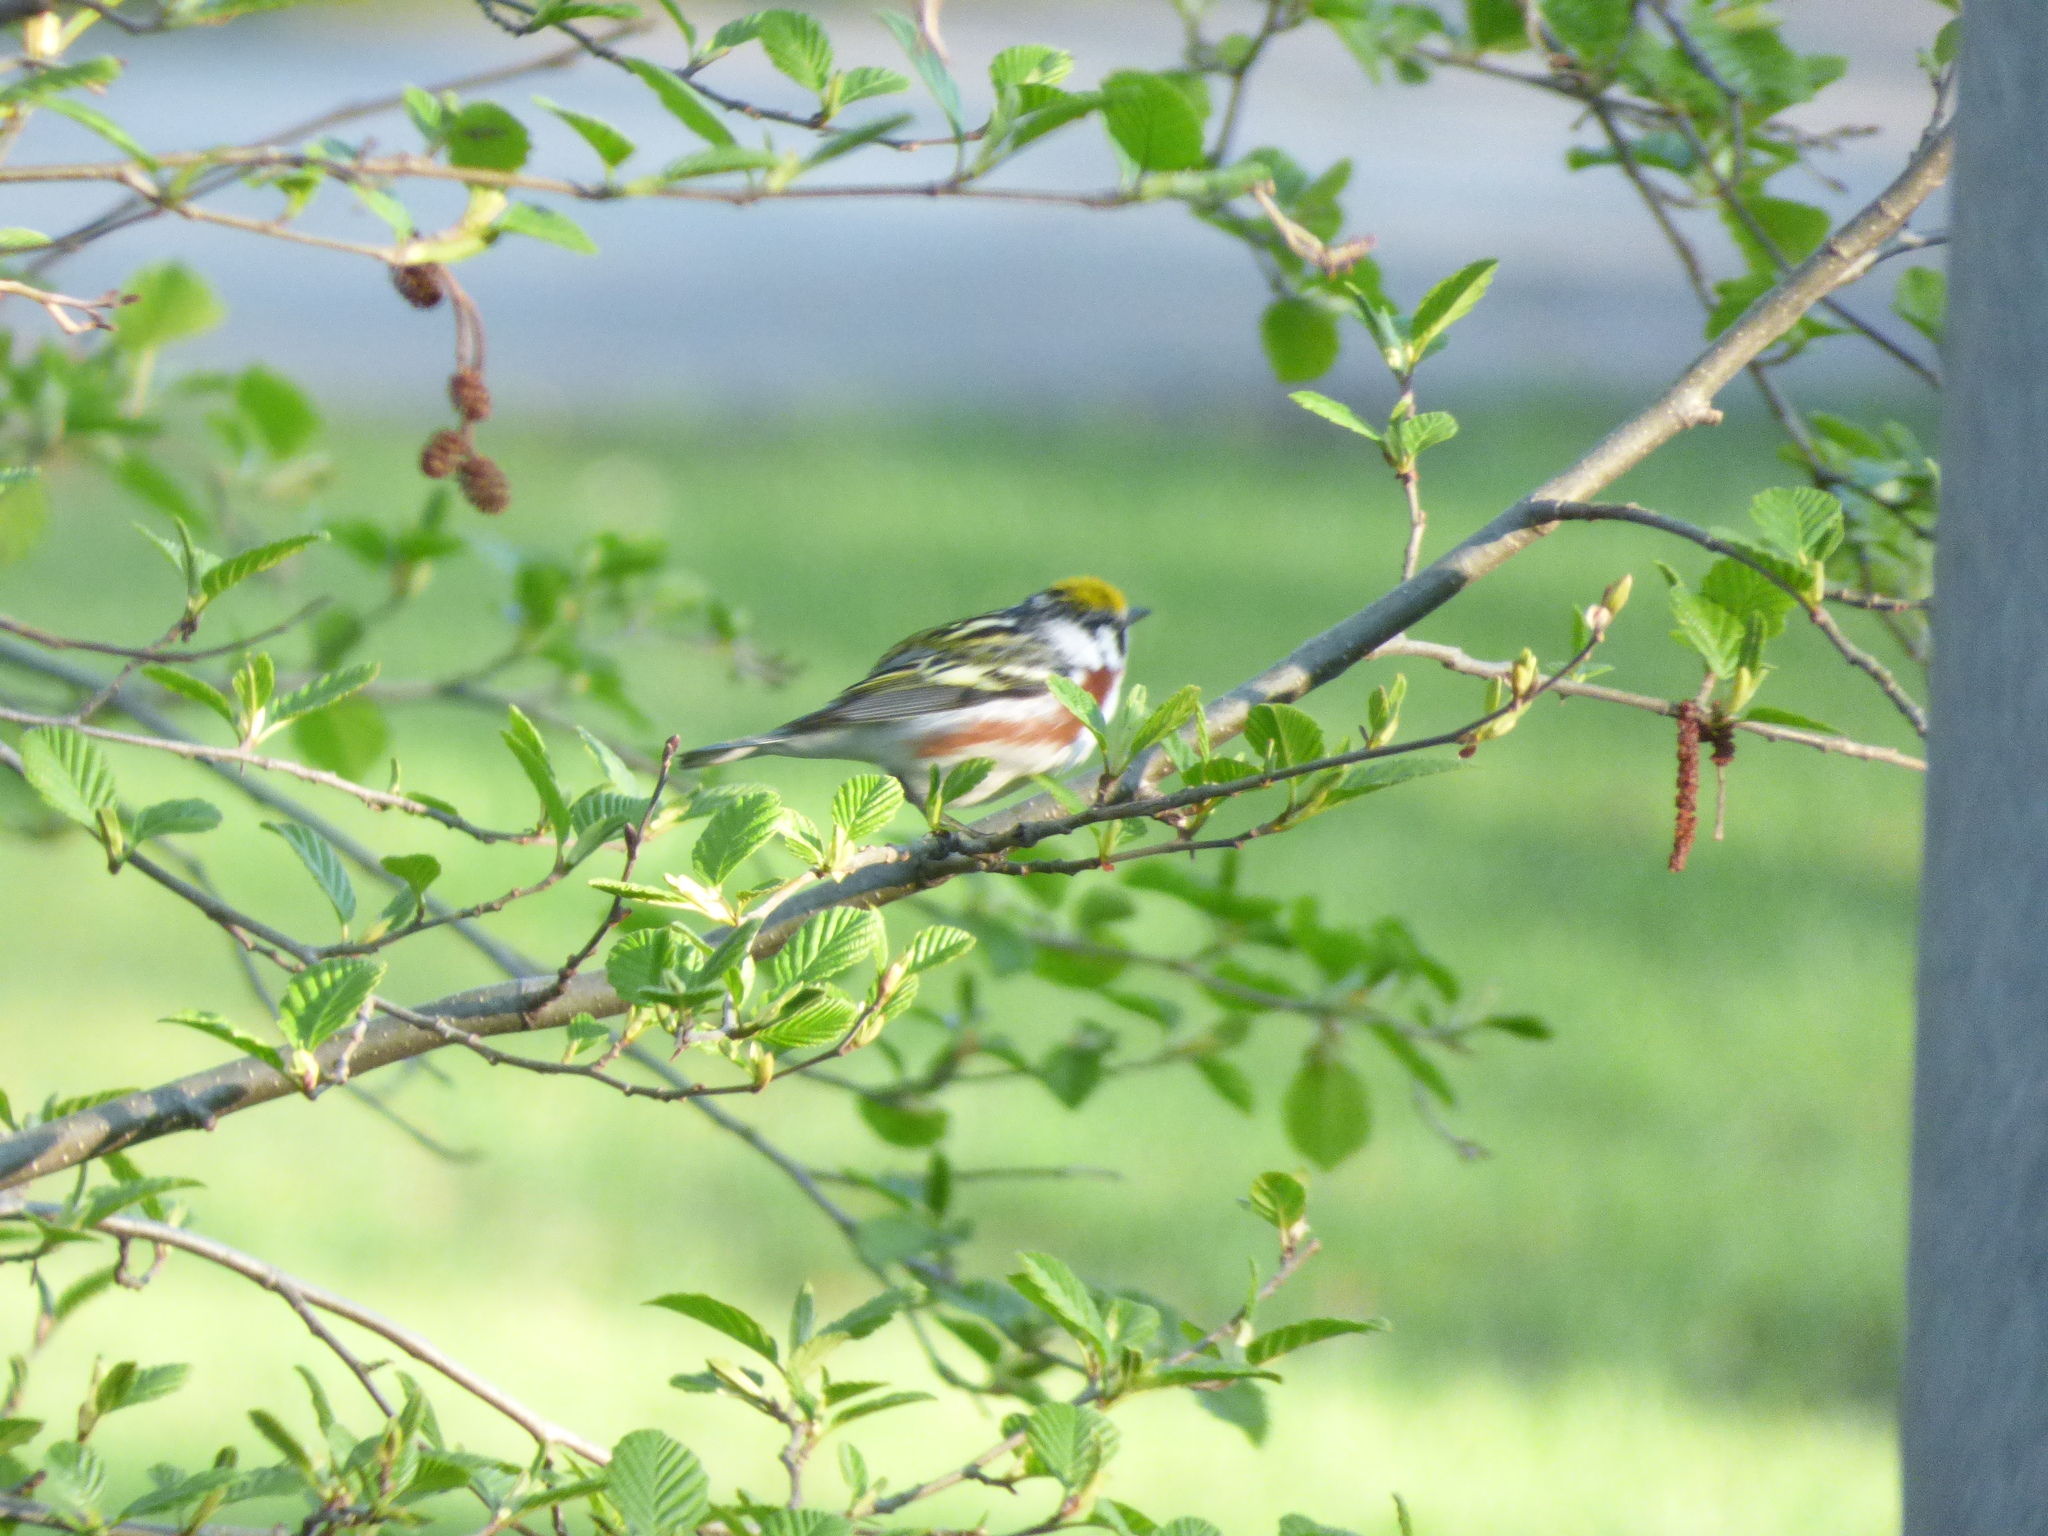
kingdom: Animalia
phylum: Chordata
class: Aves
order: Passeriformes
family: Parulidae
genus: Setophaga
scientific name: Setophaga pensylvanica
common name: Chestnut-sided warbler
